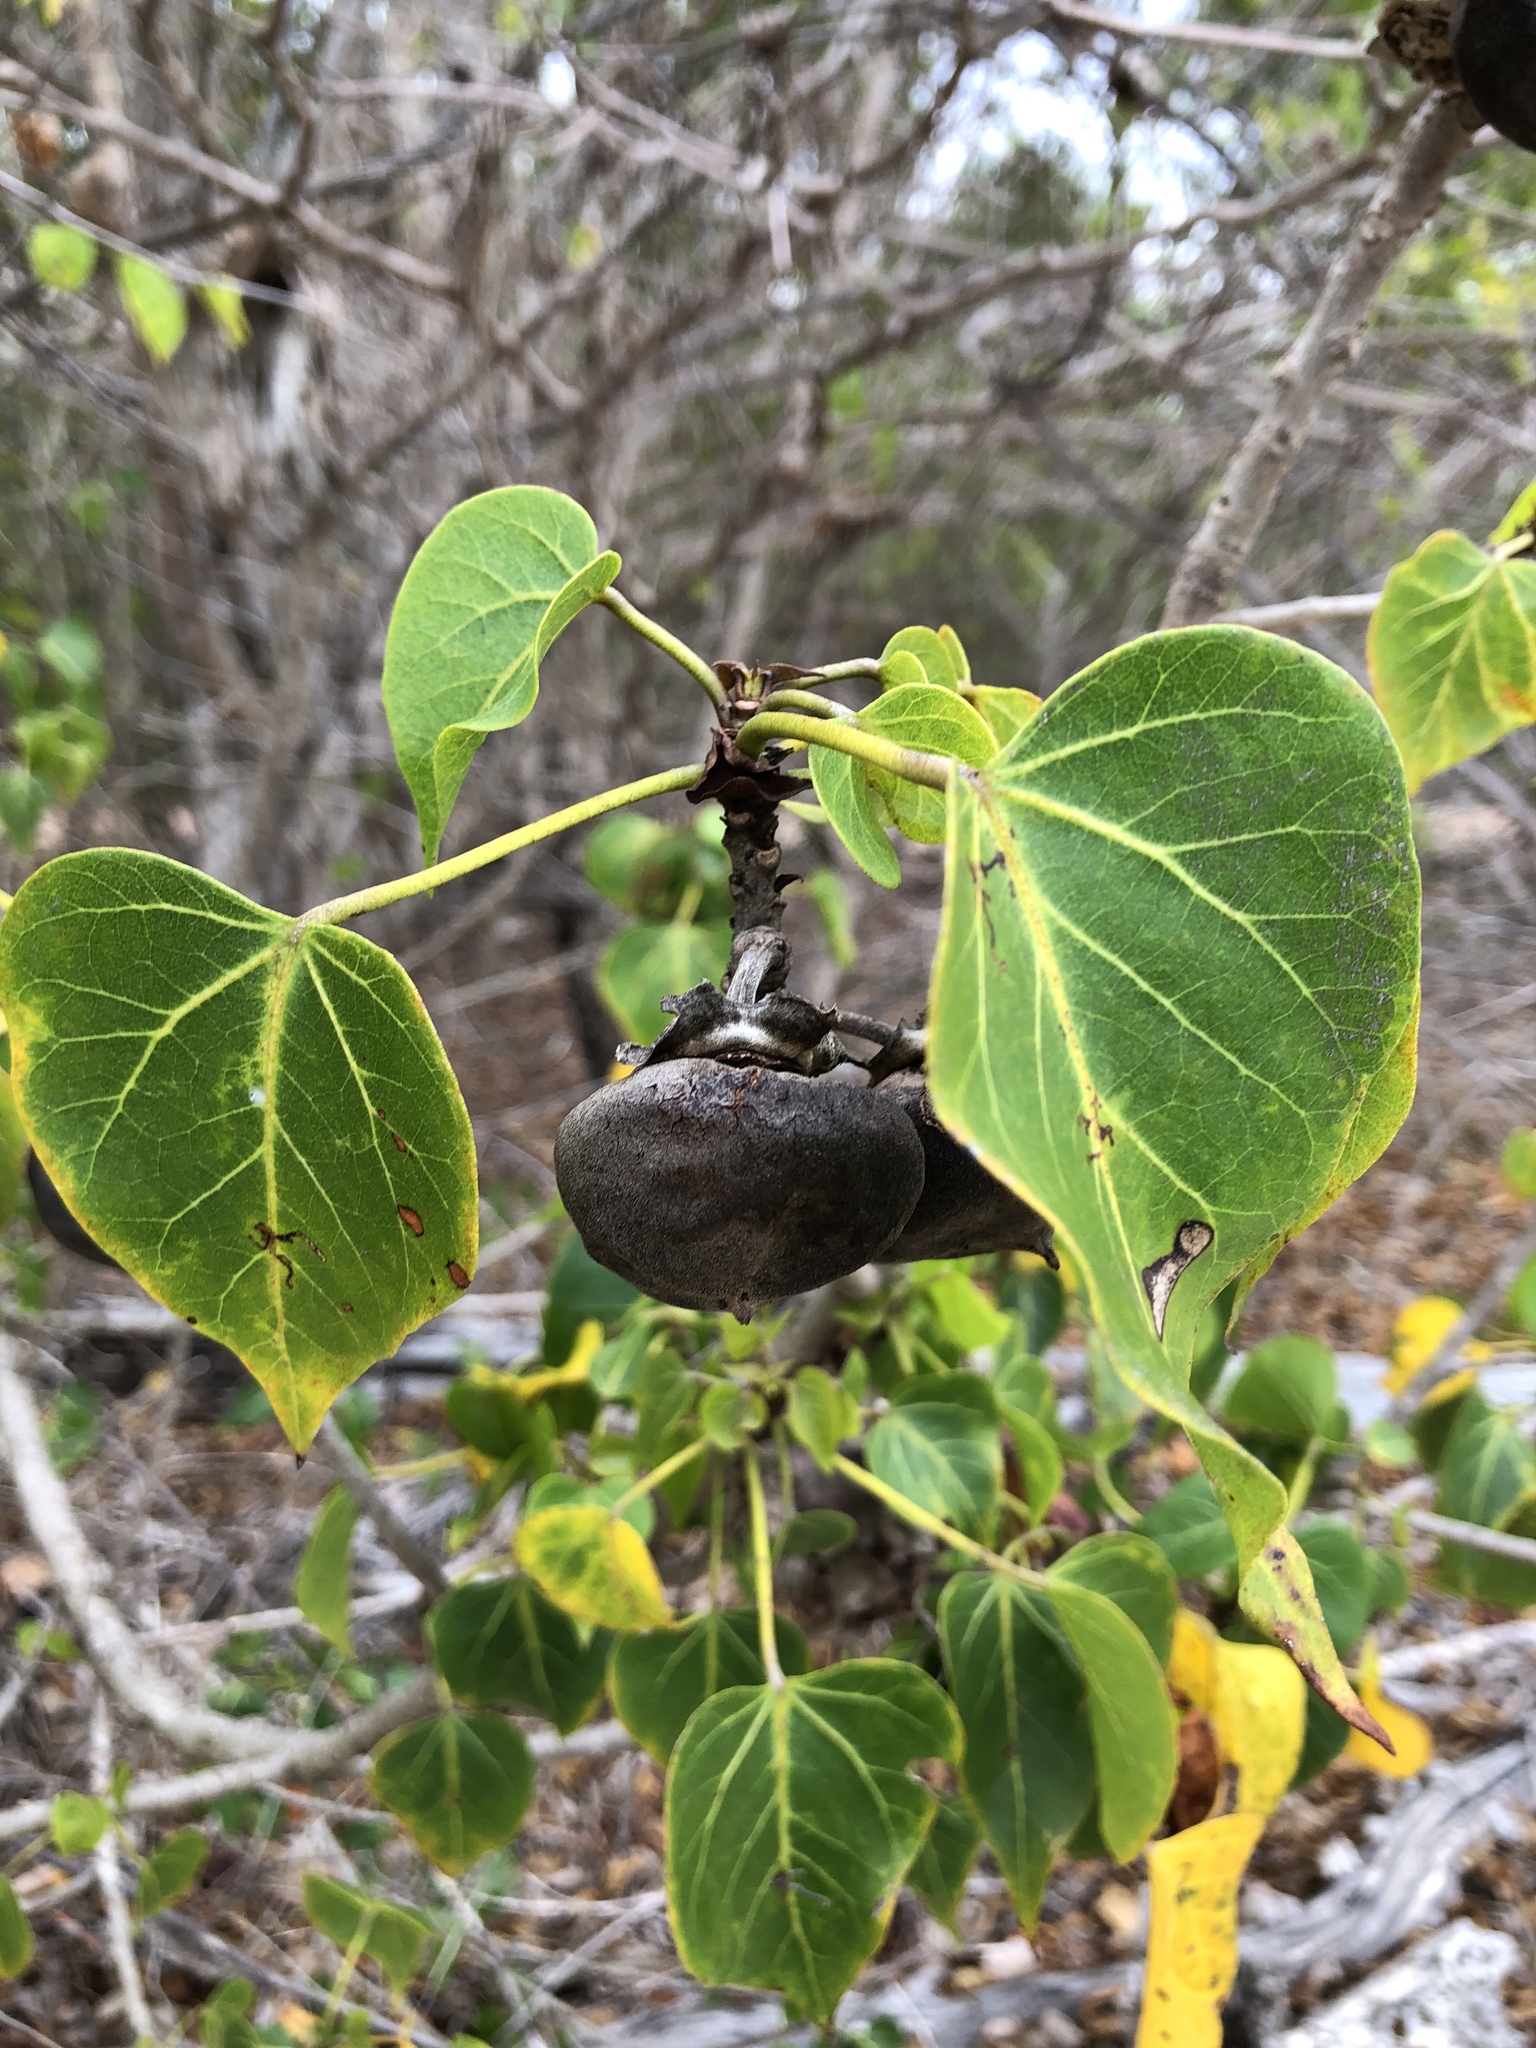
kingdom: Plantae
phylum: Tracheophyta
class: Magnoliopsida
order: Malvales
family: Malvaceae
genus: Thespesia
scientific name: Thespesia populnea
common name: Seaside mahoe
